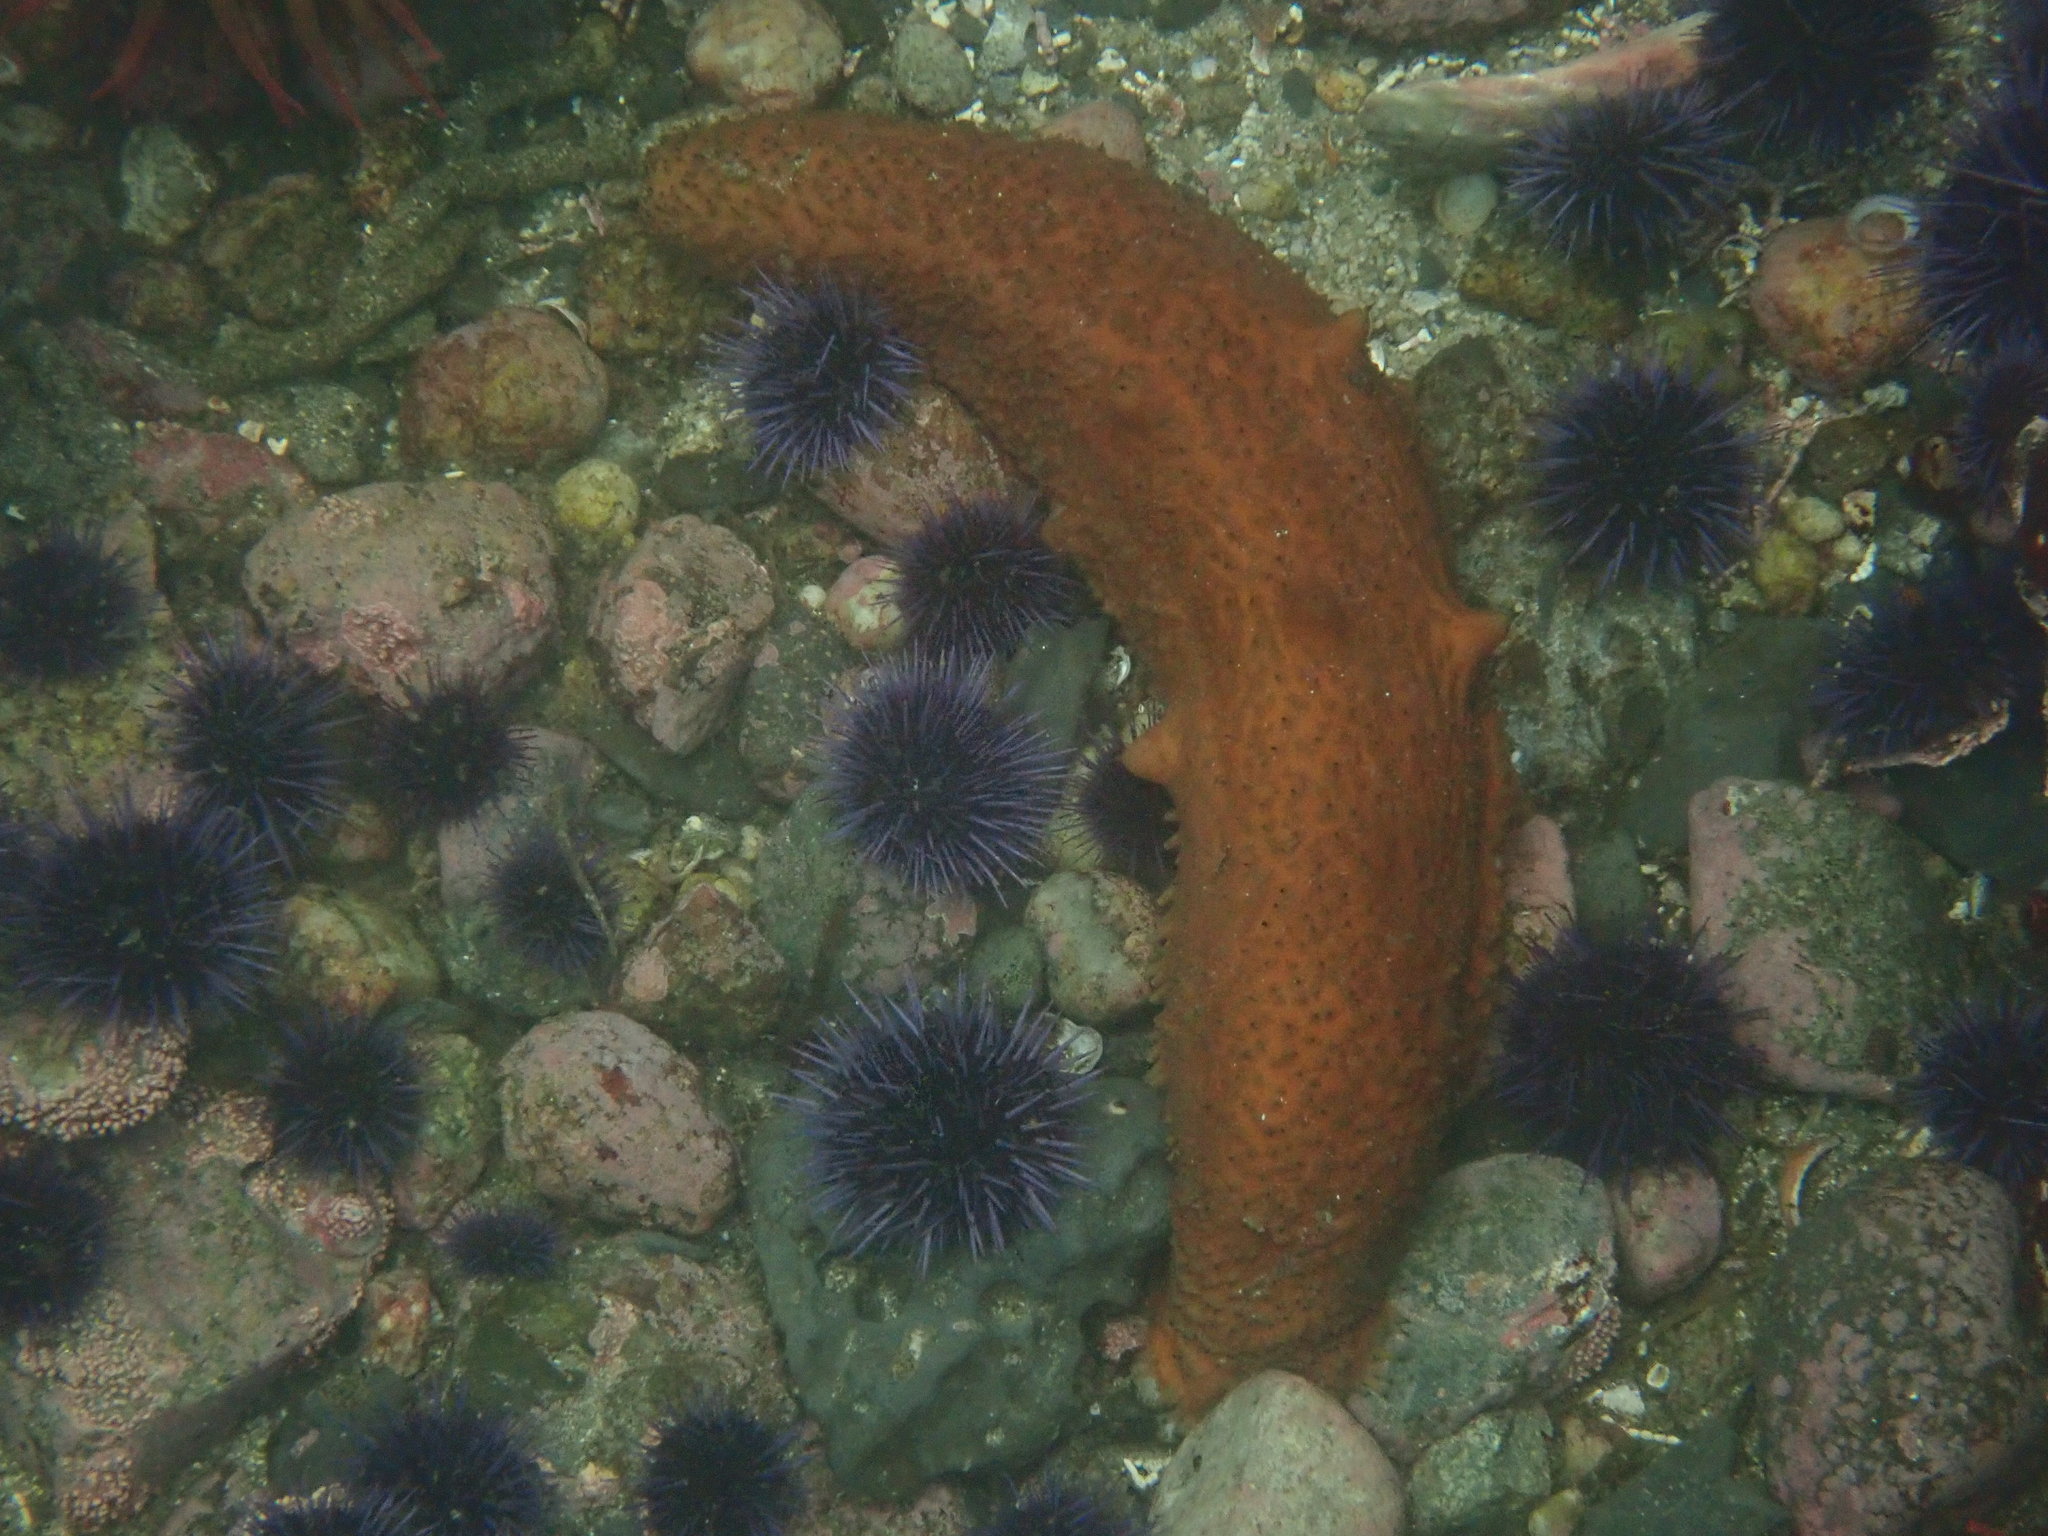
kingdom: Animalia
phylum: Echinodermata
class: Holothuroidea
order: Synallactida
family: Stichopodidae
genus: Apostichopus
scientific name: Apostichopus parvimensis
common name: Warty sea cucumber
